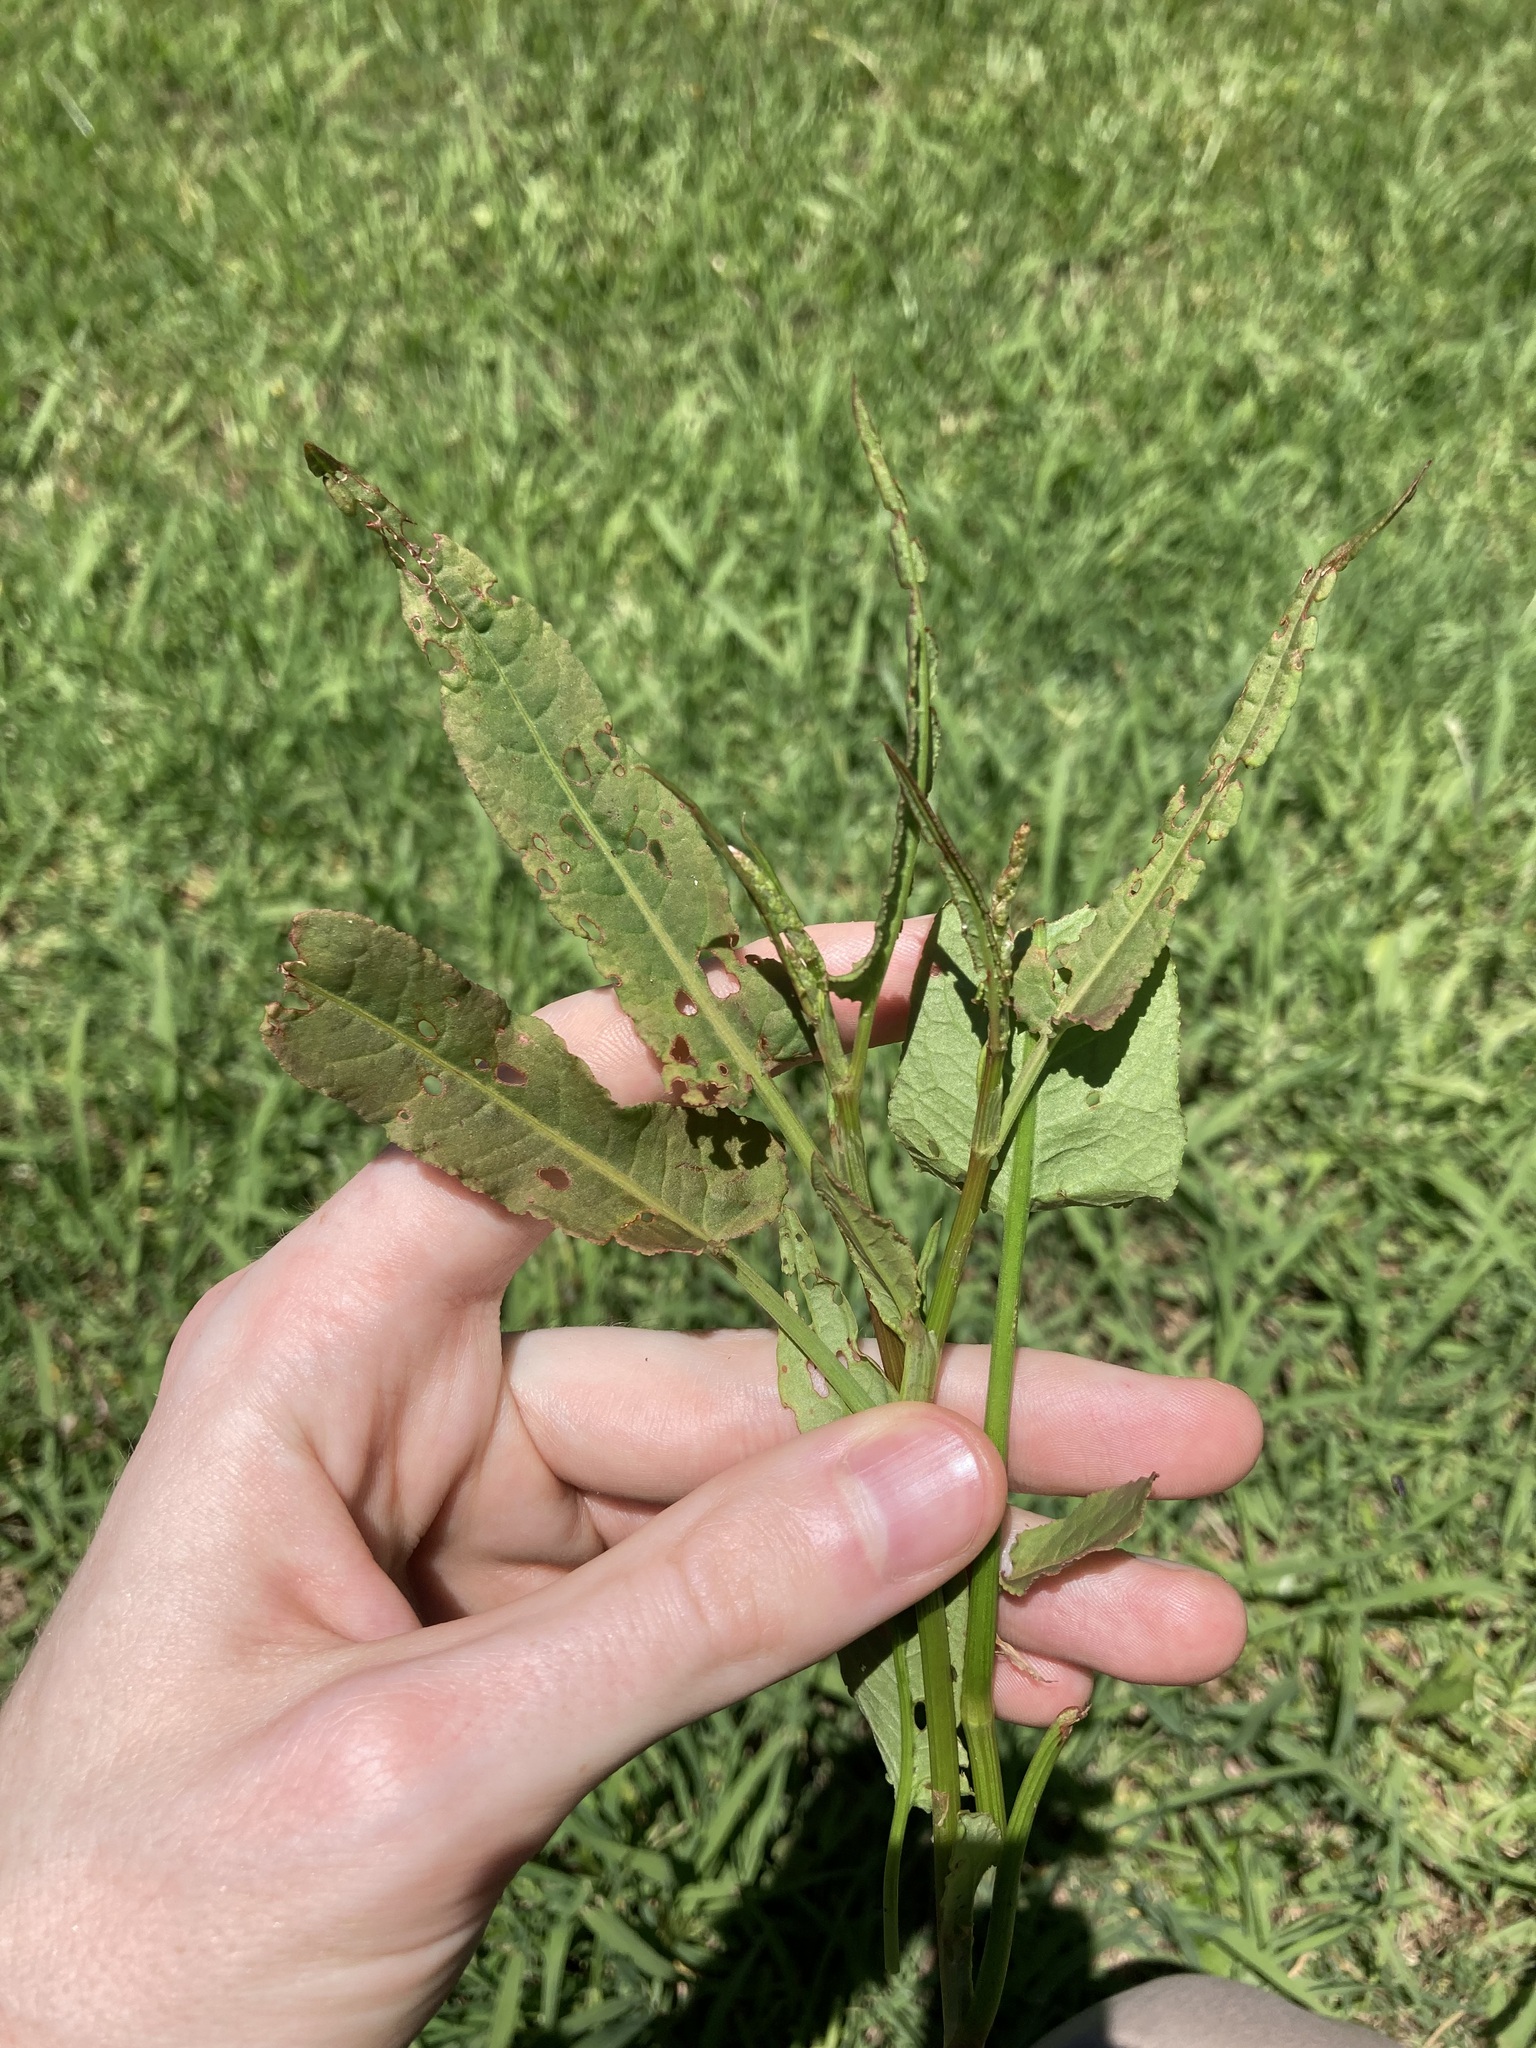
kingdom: Plantae
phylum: Tracheophyta
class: Magnoliopsida
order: Caryophyllales
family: Polygonaceae
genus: Rumex
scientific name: Rumex brownii
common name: Hooked dock
